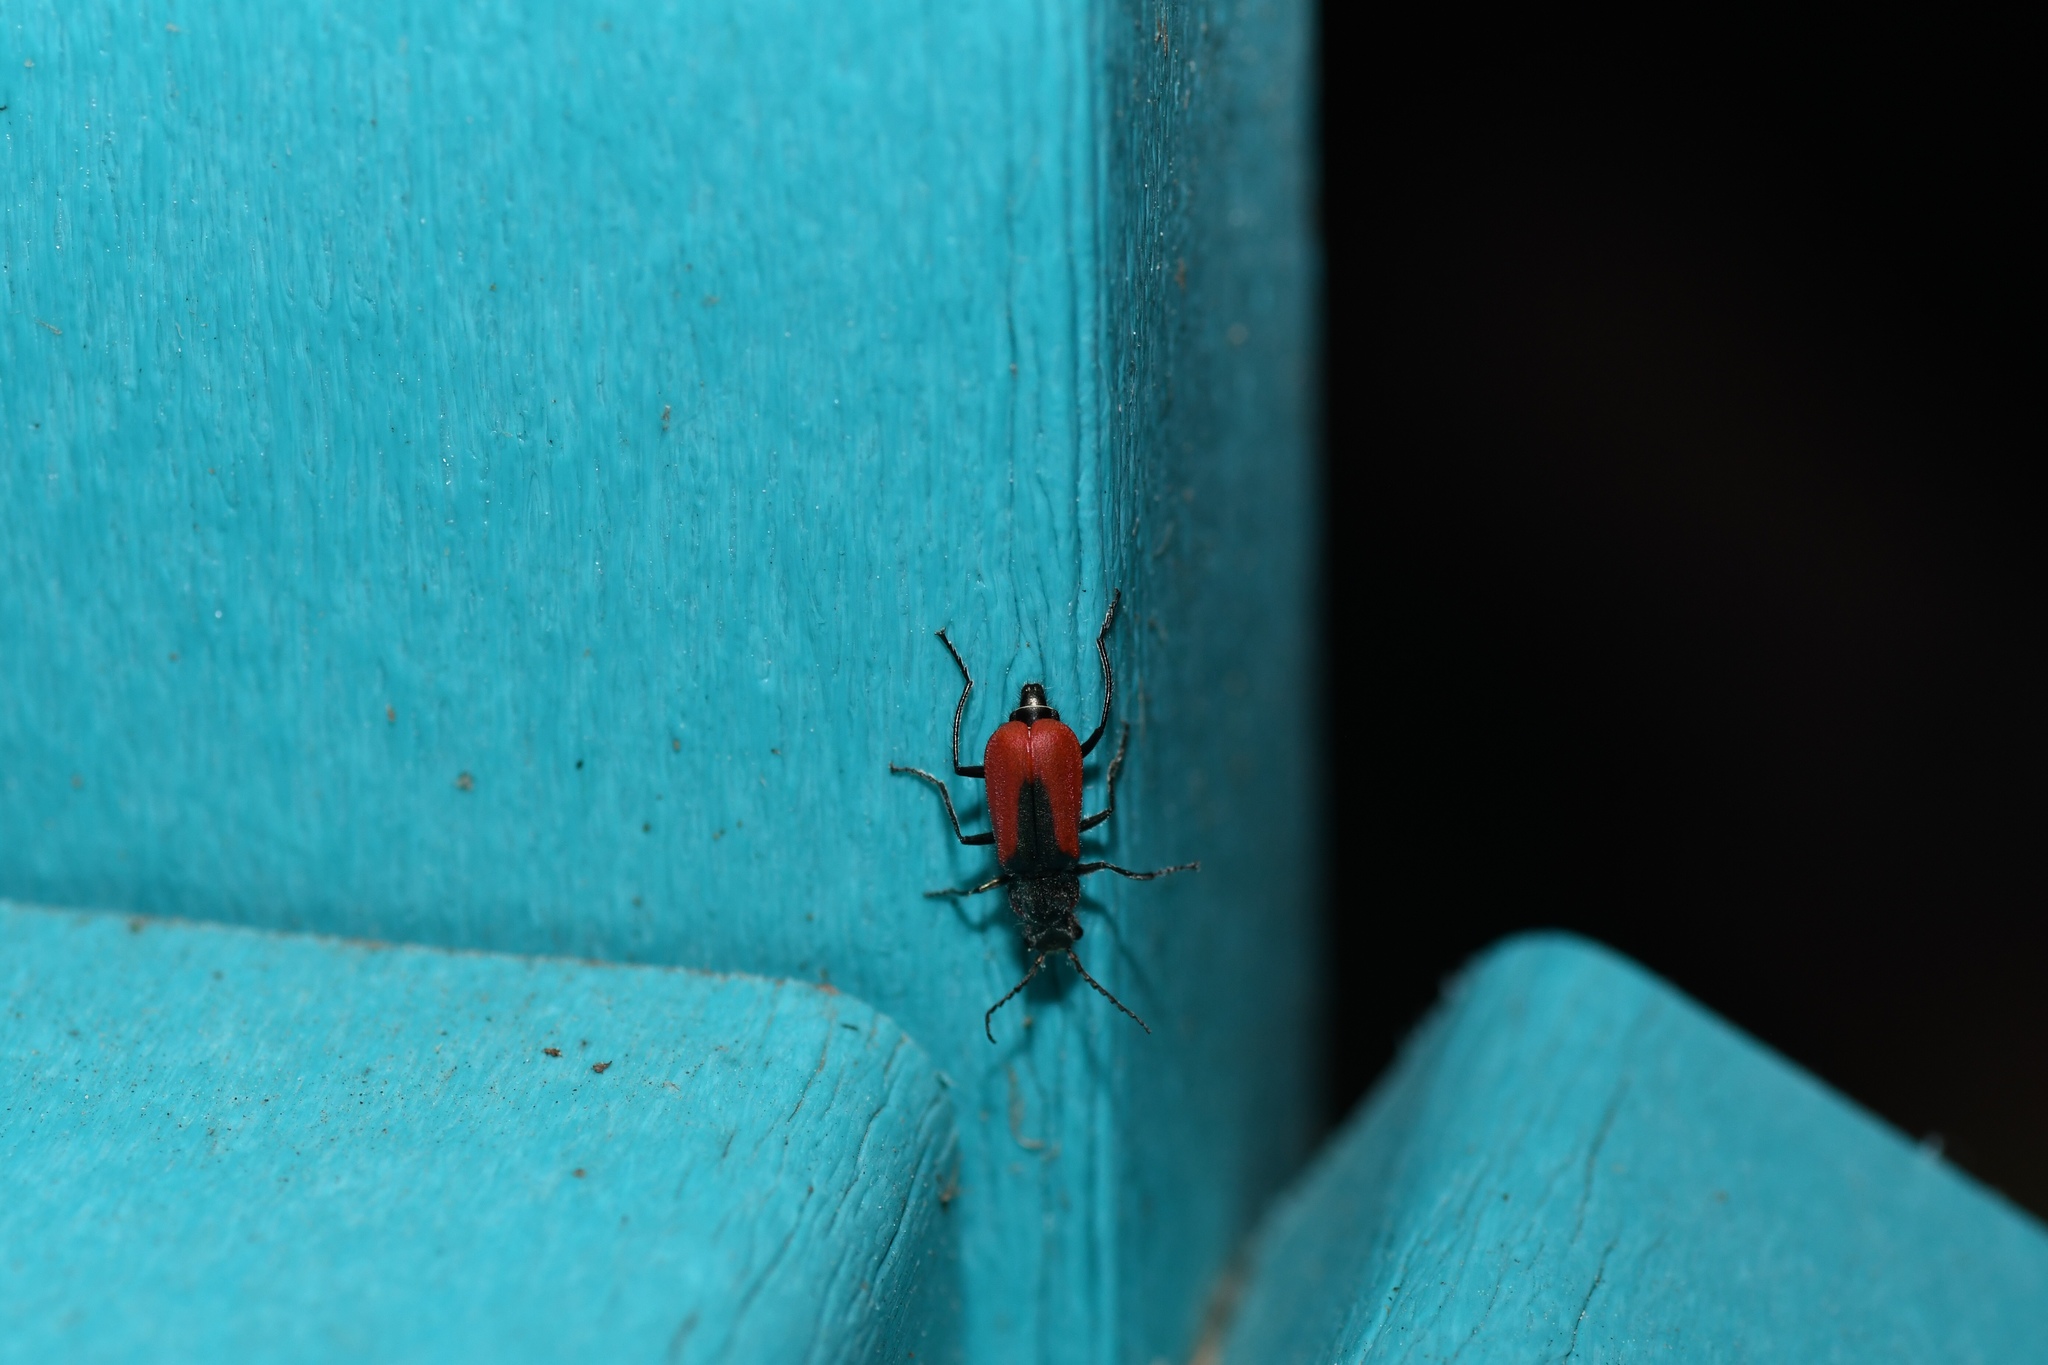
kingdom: Animalia
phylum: Arthropoda
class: Insecta
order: Coleoptera
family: Melyridae
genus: Malachius
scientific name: Malachius aeneus
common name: Scarlet malachite beetle
